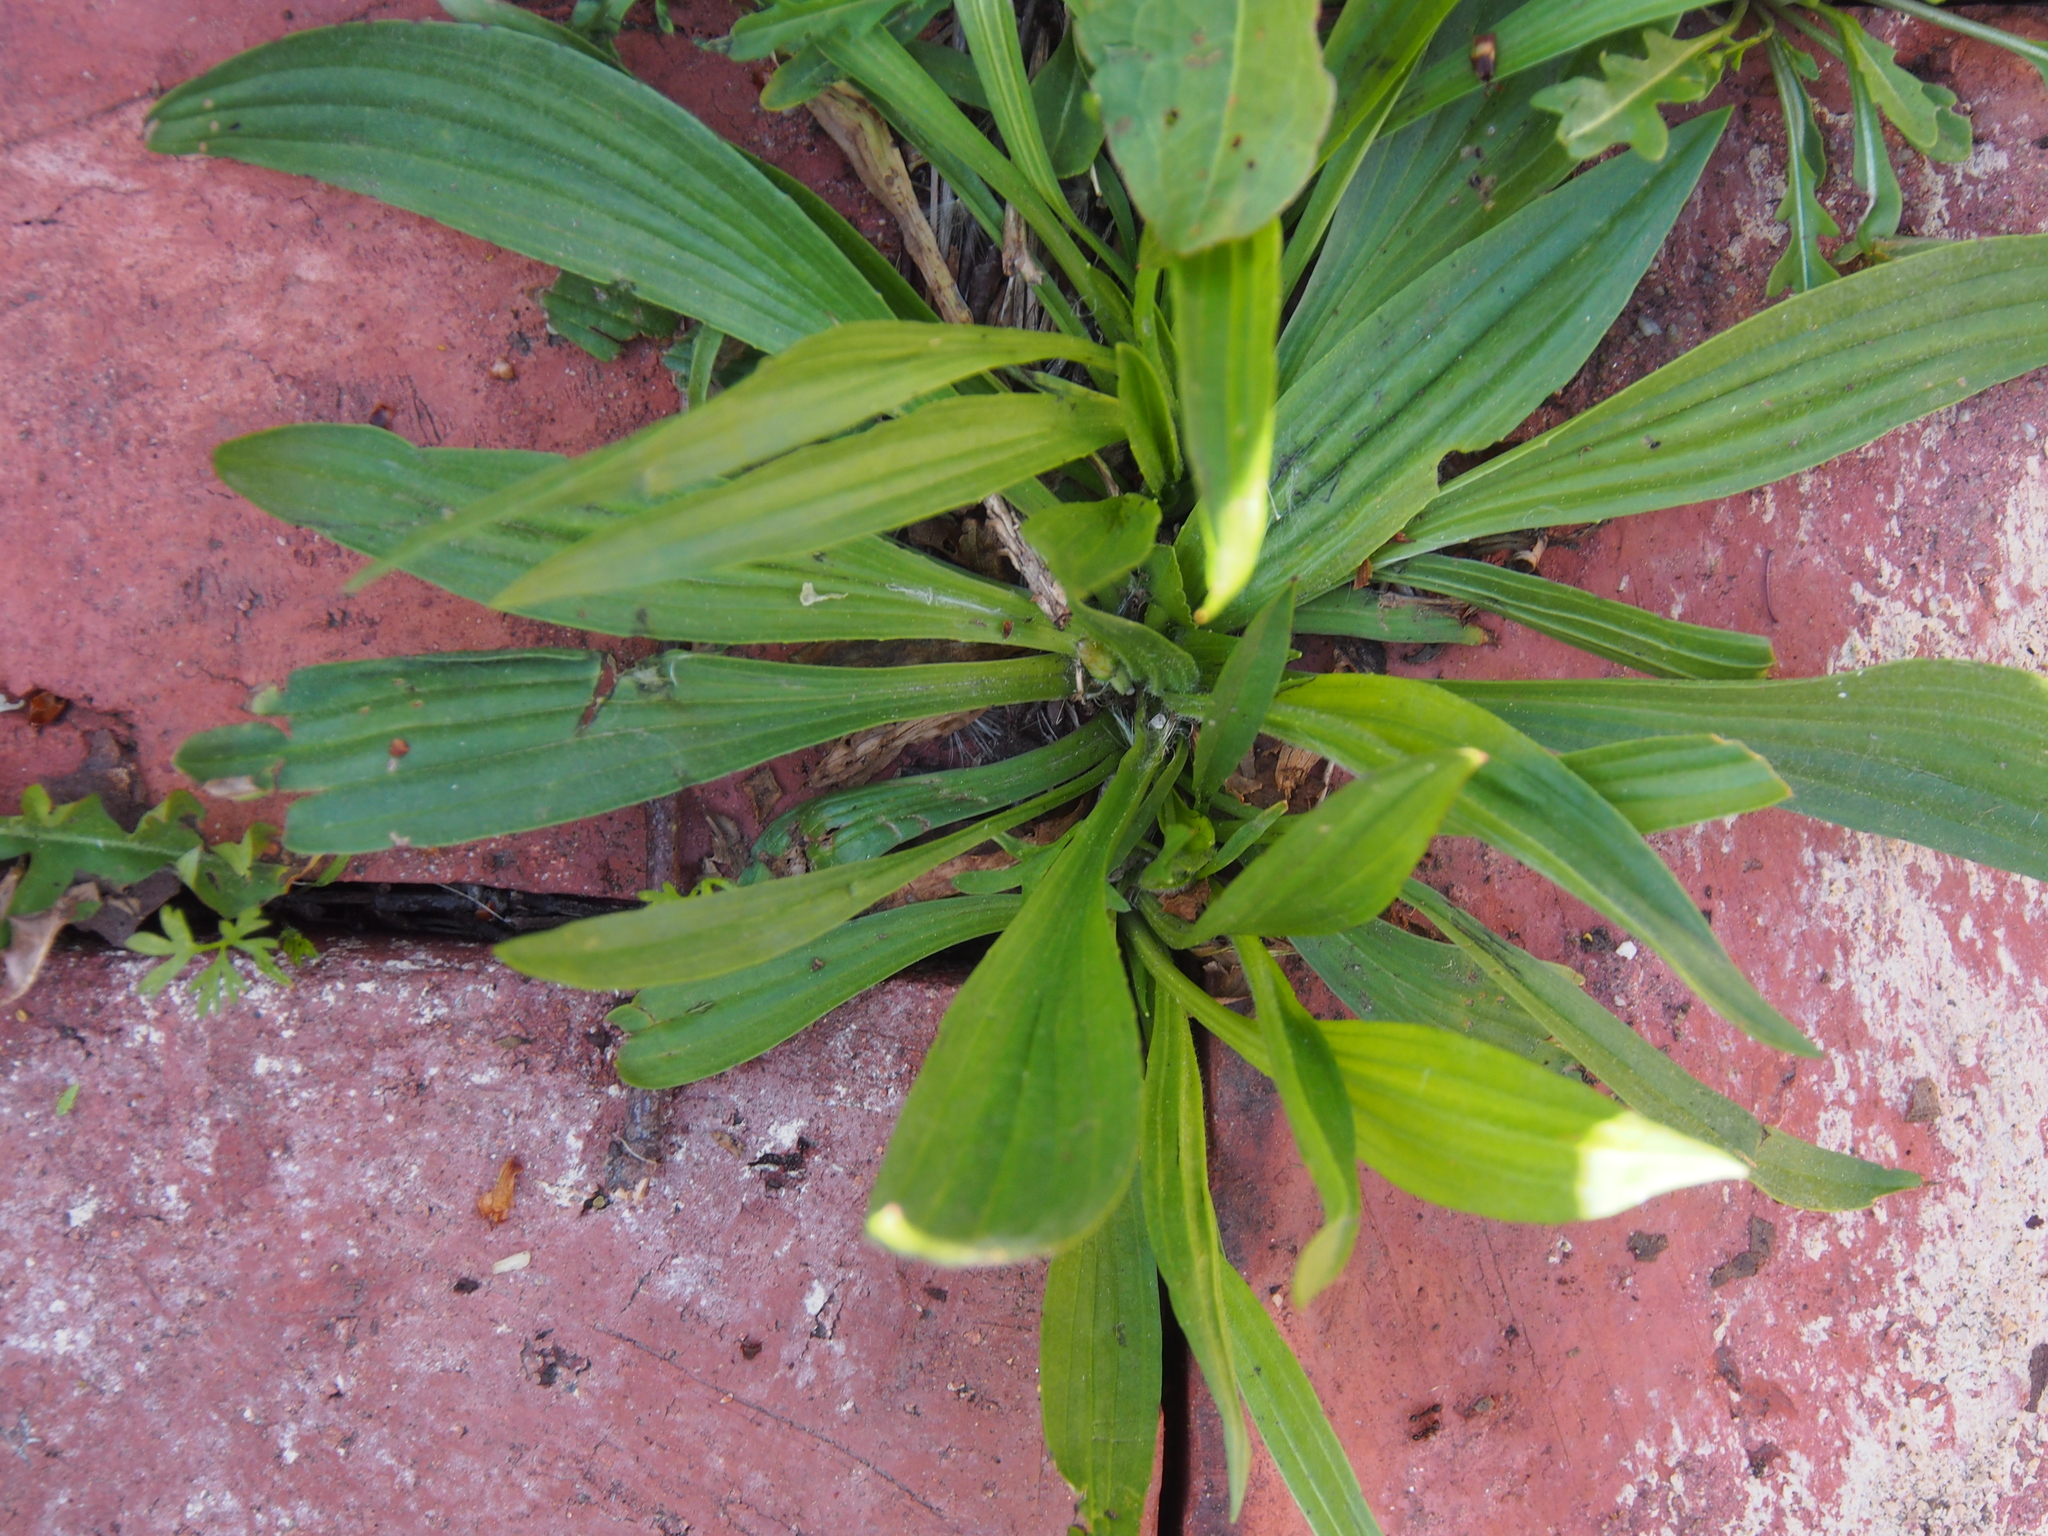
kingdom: Plantae
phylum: Tracheophyta
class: Magnoliopsida
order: Lamiales
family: Plantaginaceae
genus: Plantago
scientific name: Plantago lanceolata
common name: Ribwort plantain
